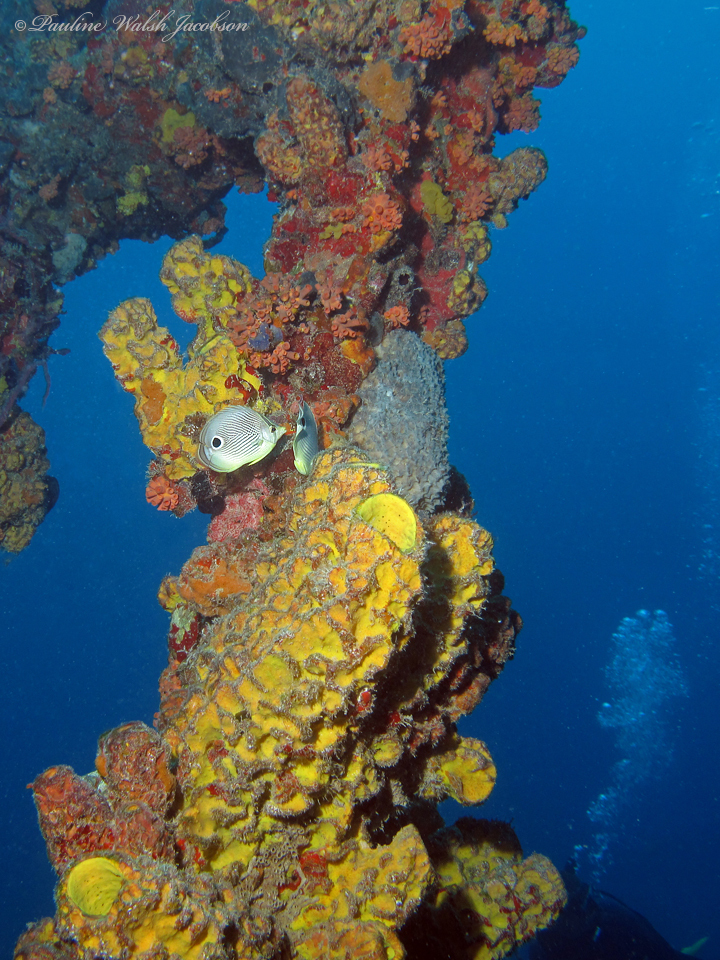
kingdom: Animalia
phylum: Chordata
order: Perciformes
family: Chaetodontidae
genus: Chaetodon
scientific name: Chaetodon capistratus
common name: Kete
